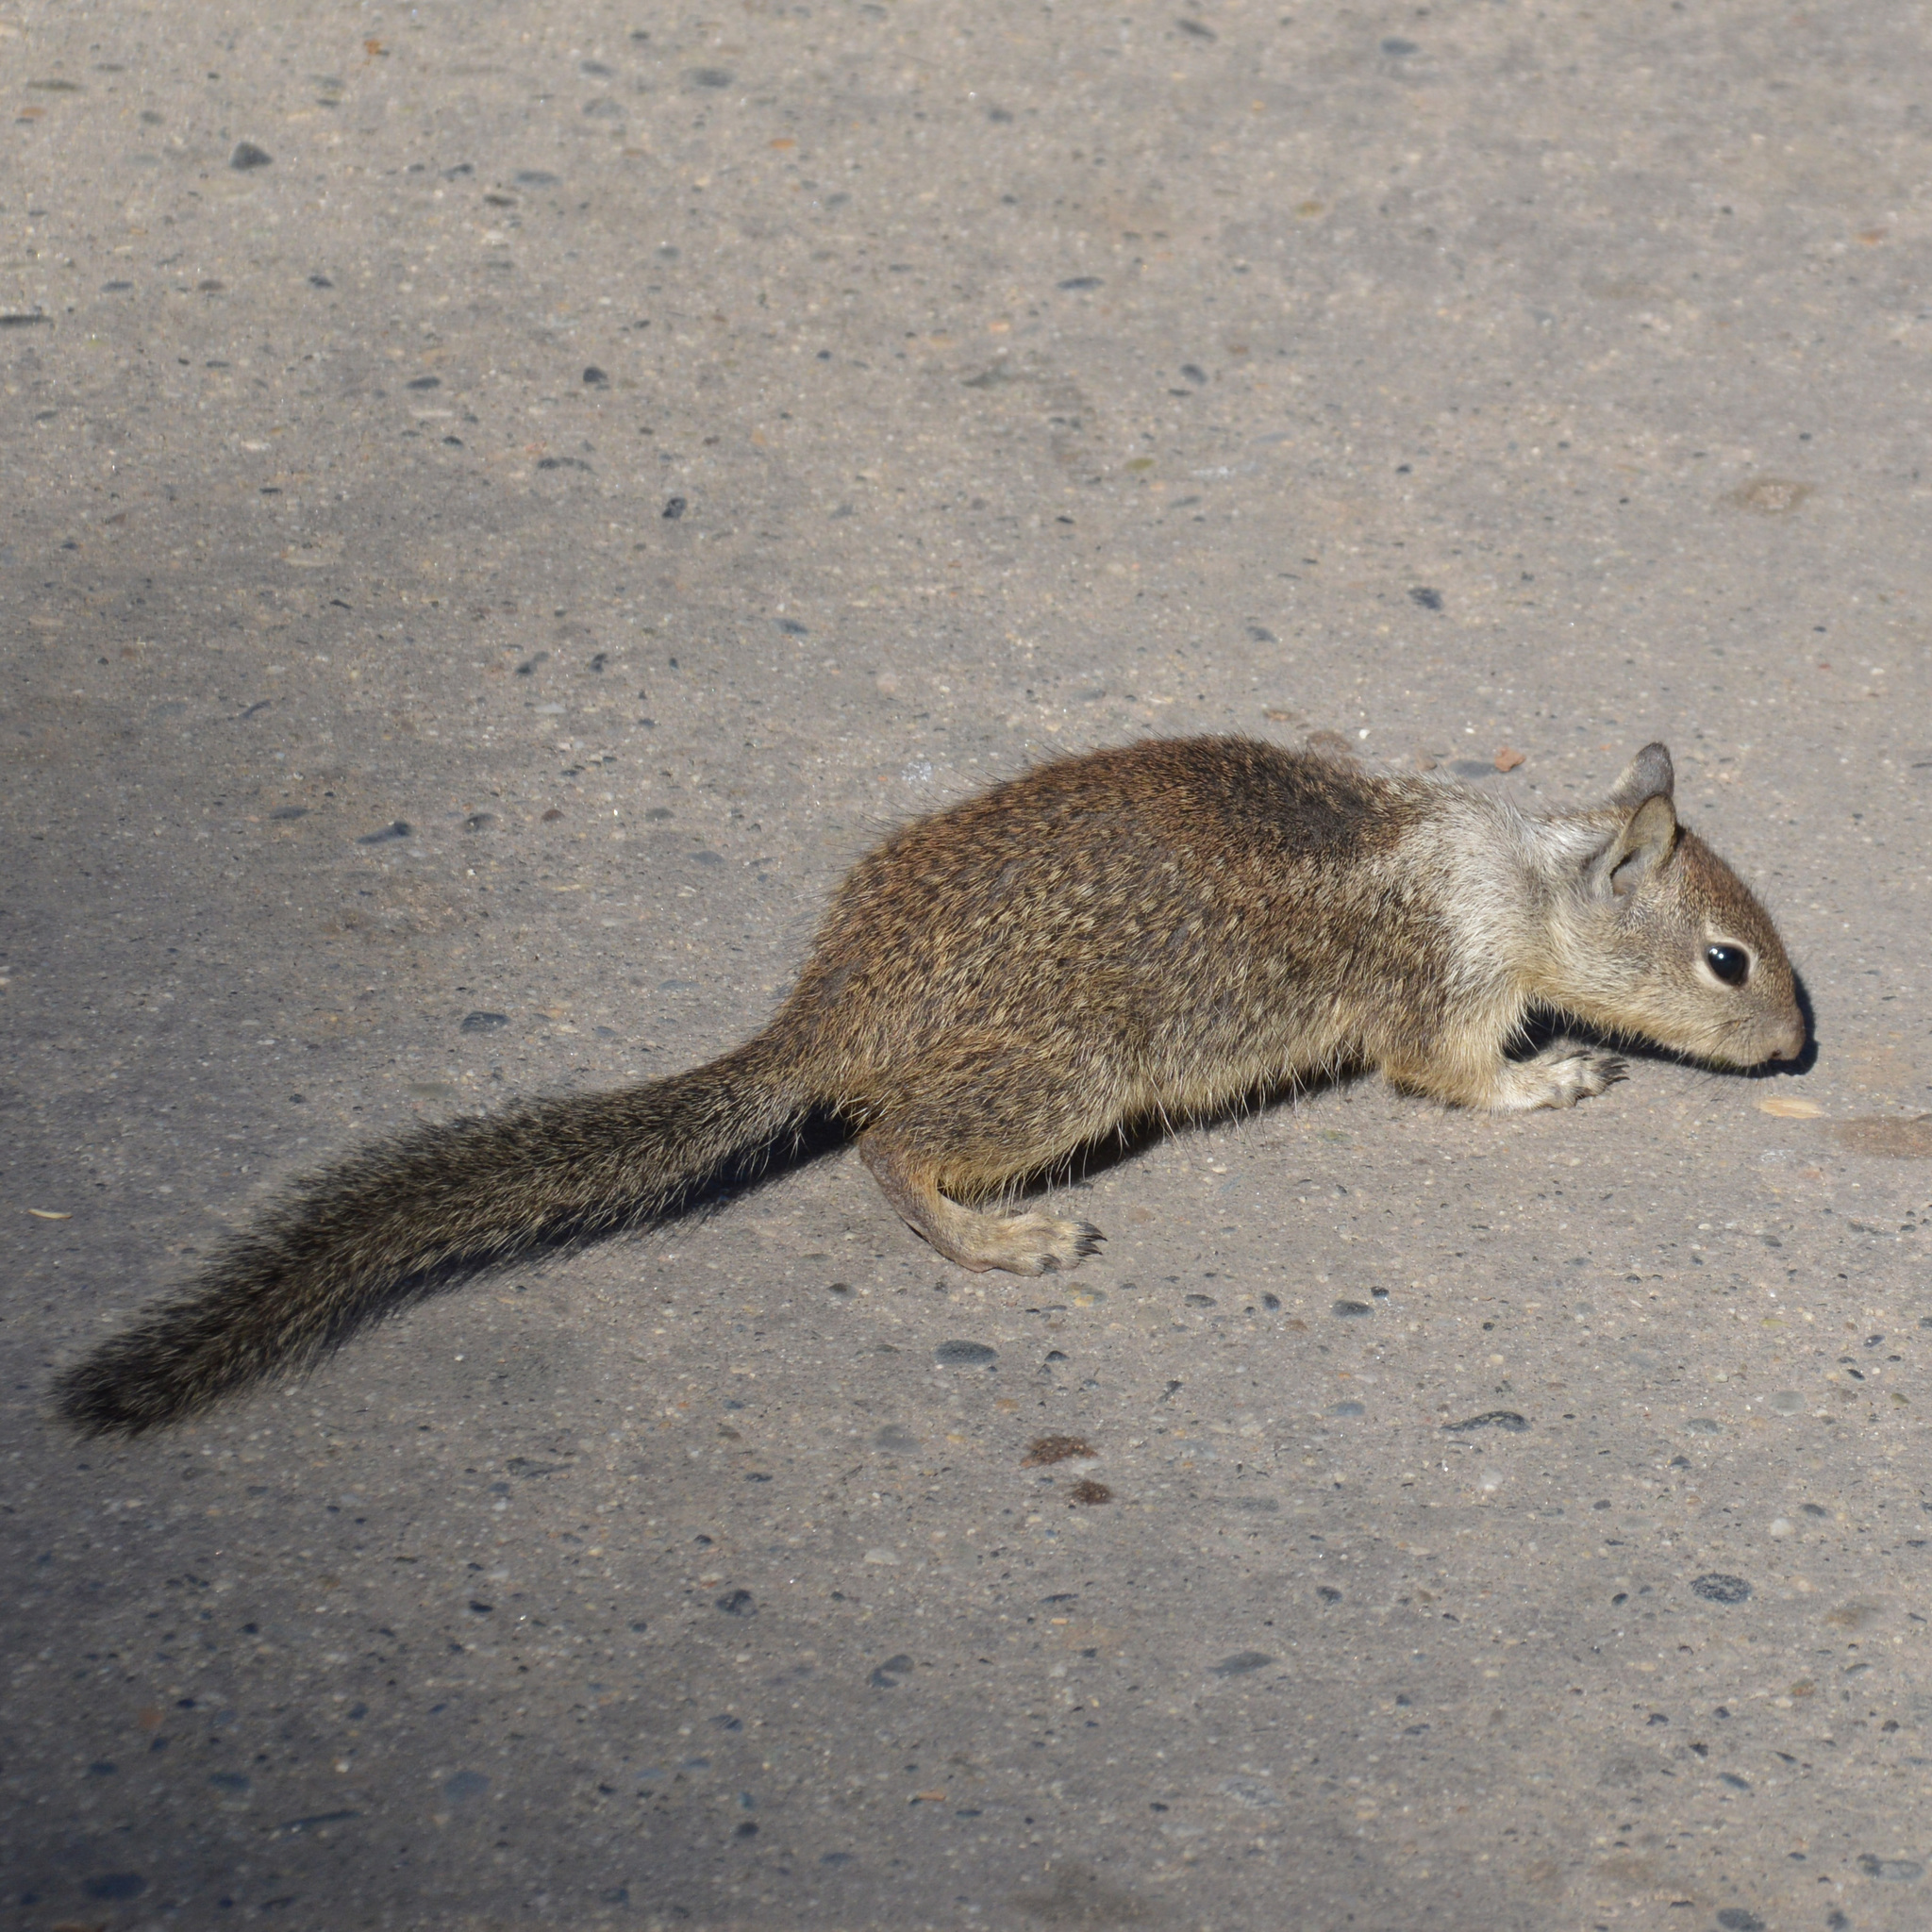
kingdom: Animalia
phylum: Chordata
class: Mammalia
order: Rodentia
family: Sciuridae
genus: Otospermophilus
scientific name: Otospermophilus beecheyi
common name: California ground squirrel
